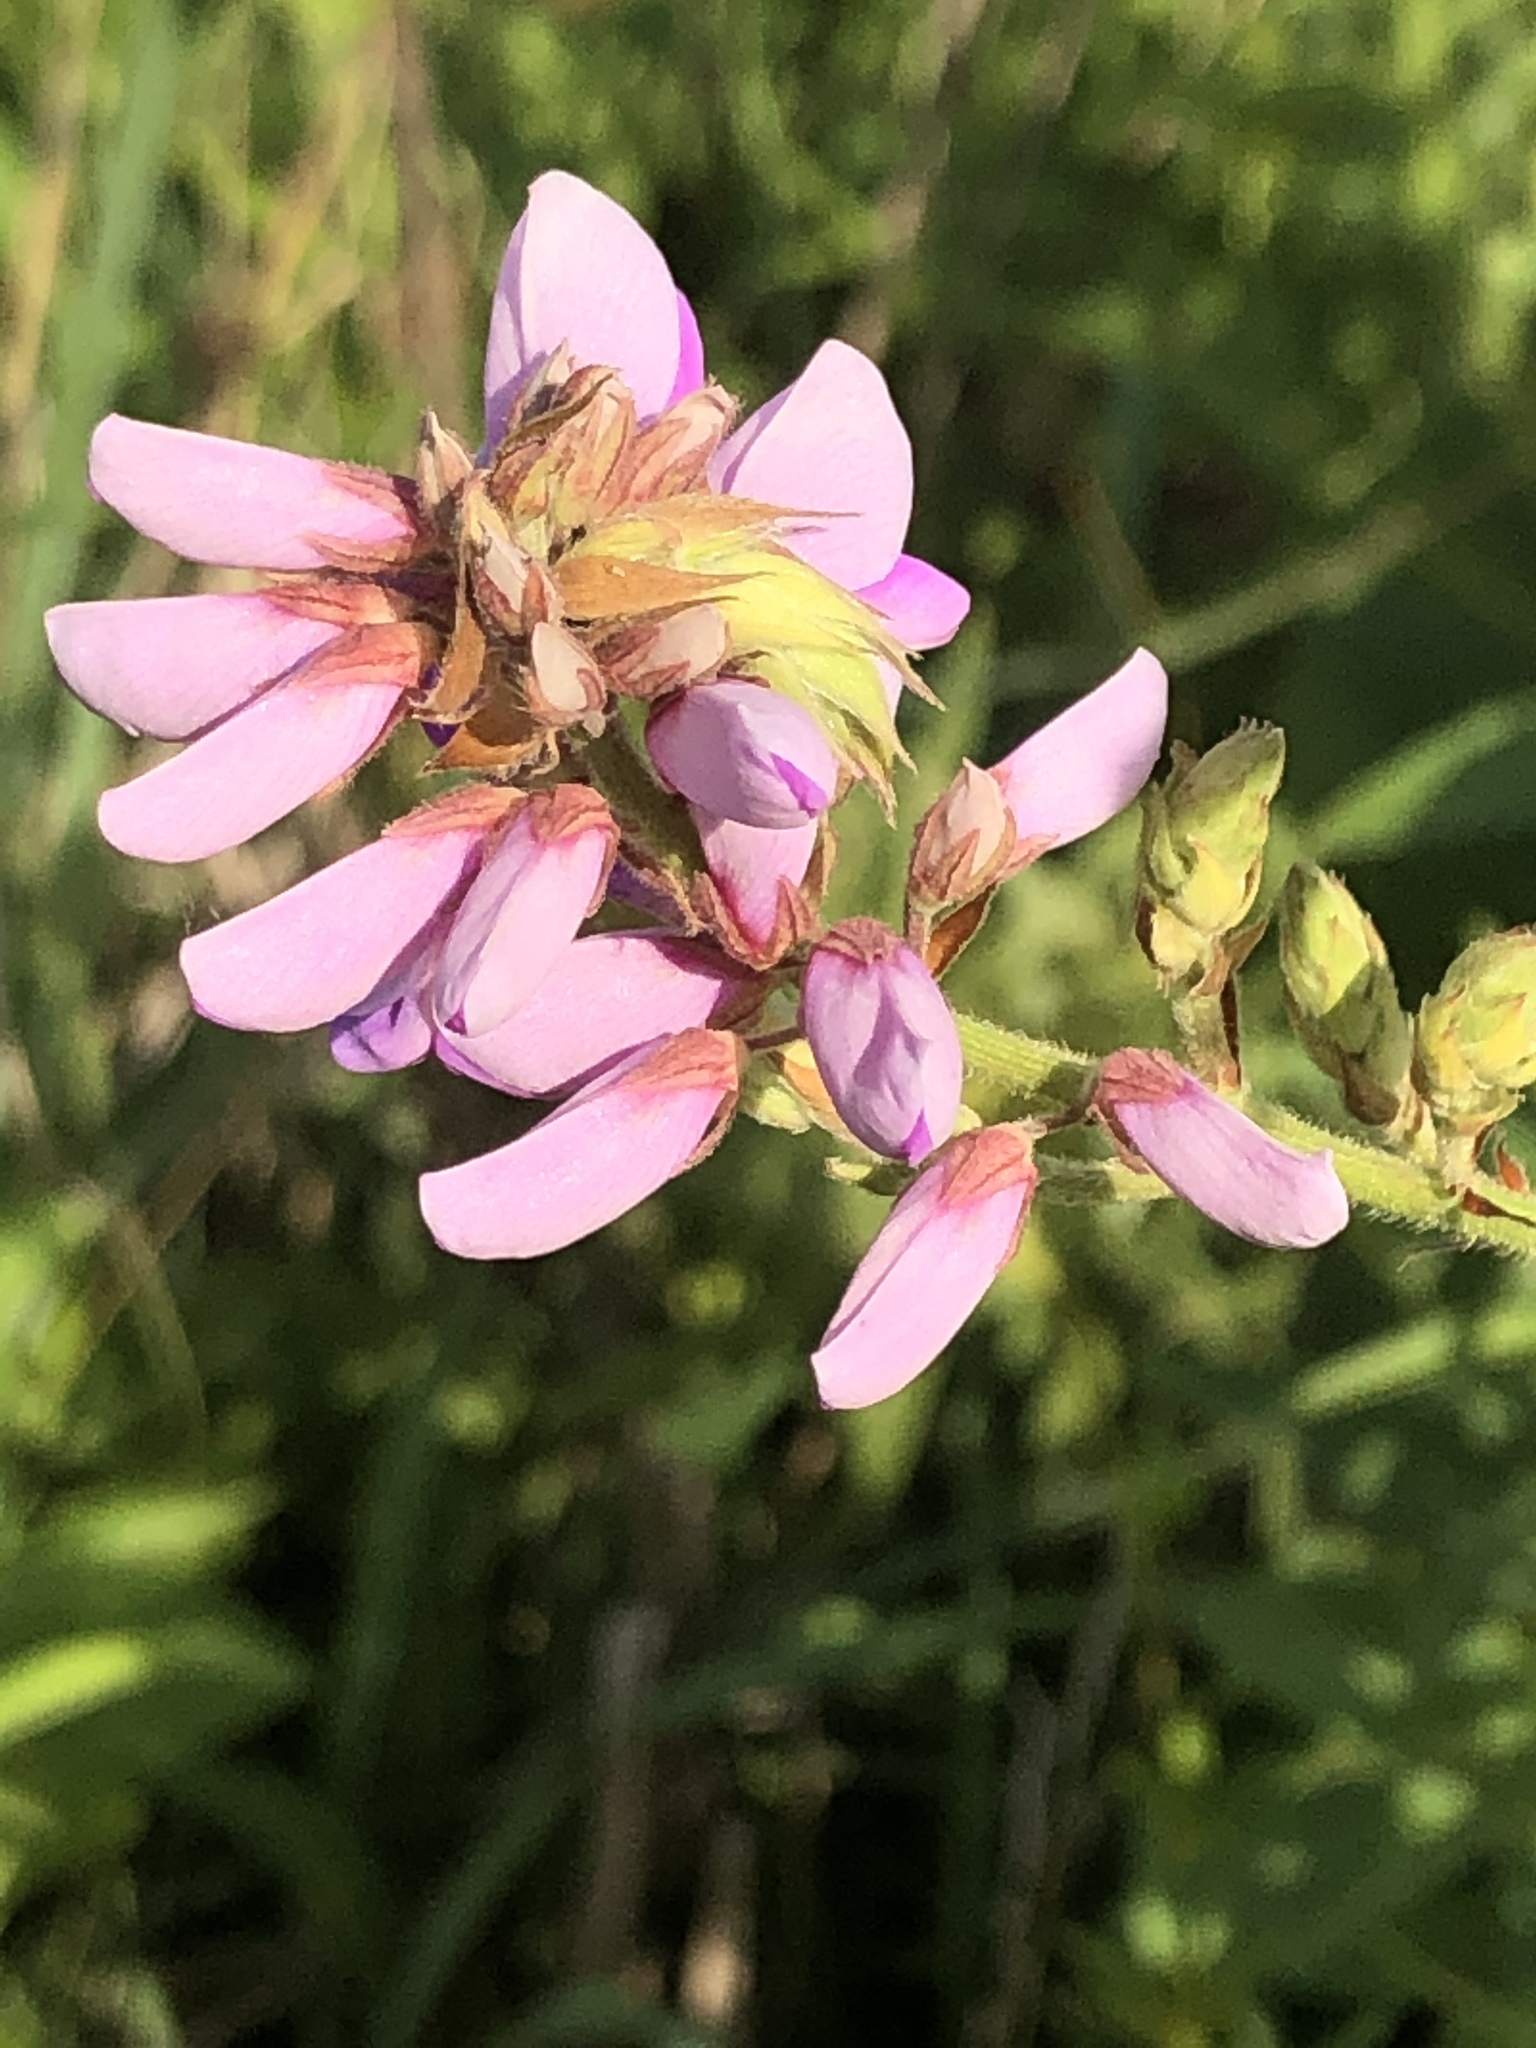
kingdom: Plantae
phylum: Tracheophyta
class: Magnoliopsida
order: Fabales
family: Fabaceae
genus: Desmodium
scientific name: Desmodium canadense
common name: Canada tick-trefoil
